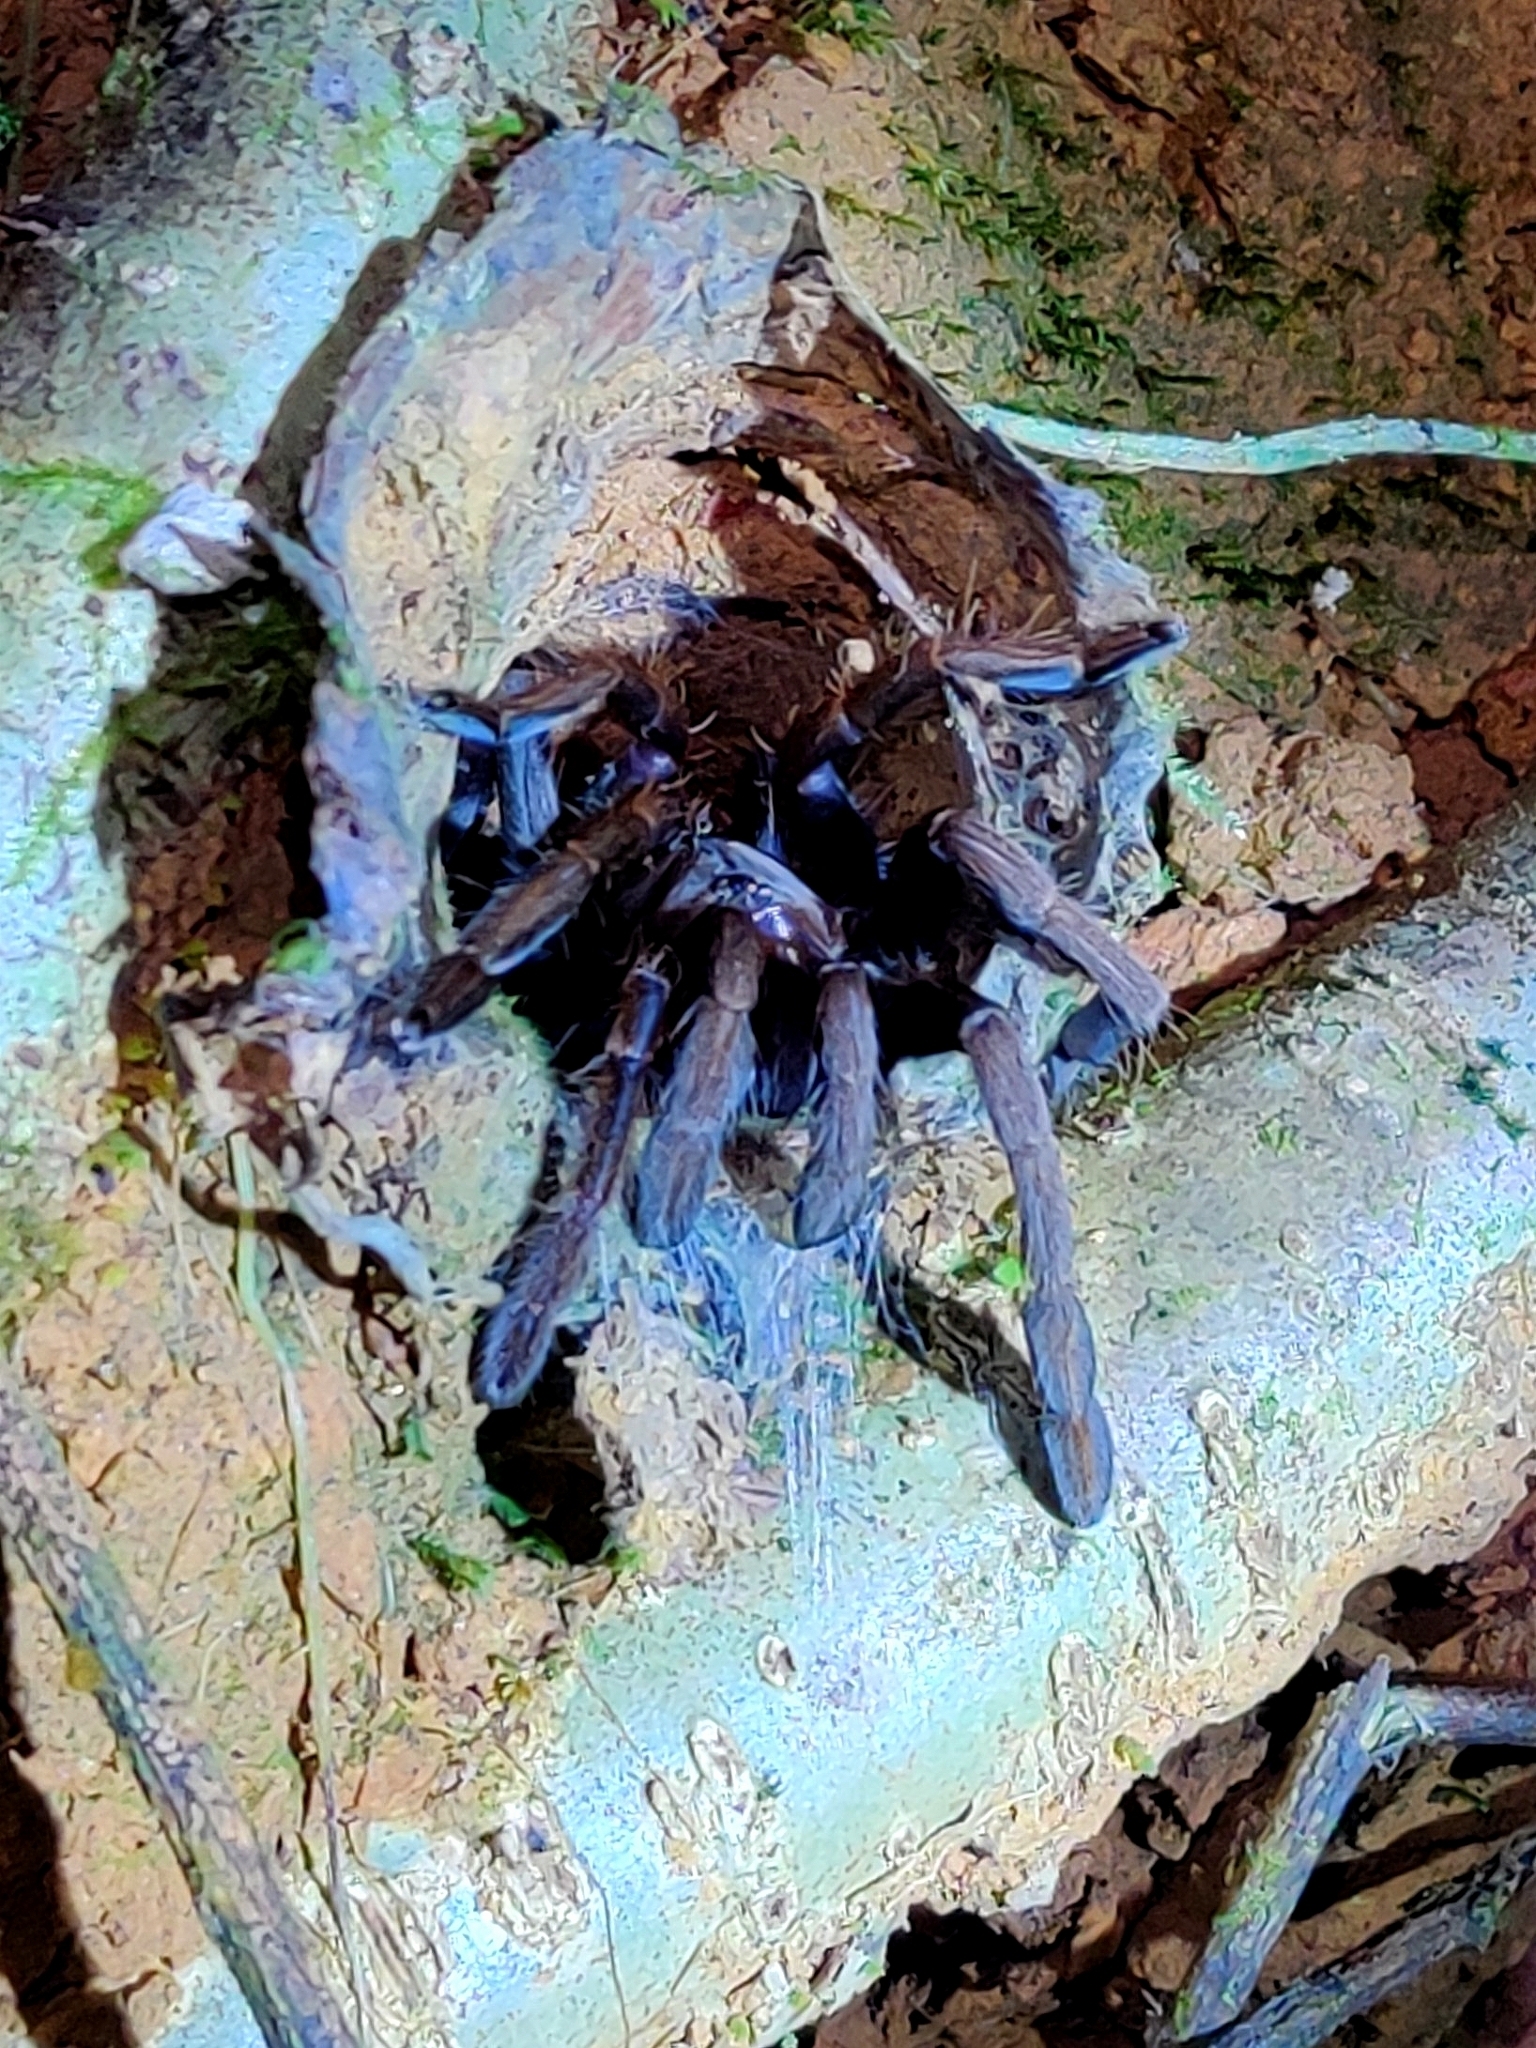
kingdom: Animalia
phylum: Arthropoda
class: Arachnida
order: Araneae
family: Theraphosidae
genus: Thrigmopoeus
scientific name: Thrigmopoeus truculentus
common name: Karwar large burrowing spider
